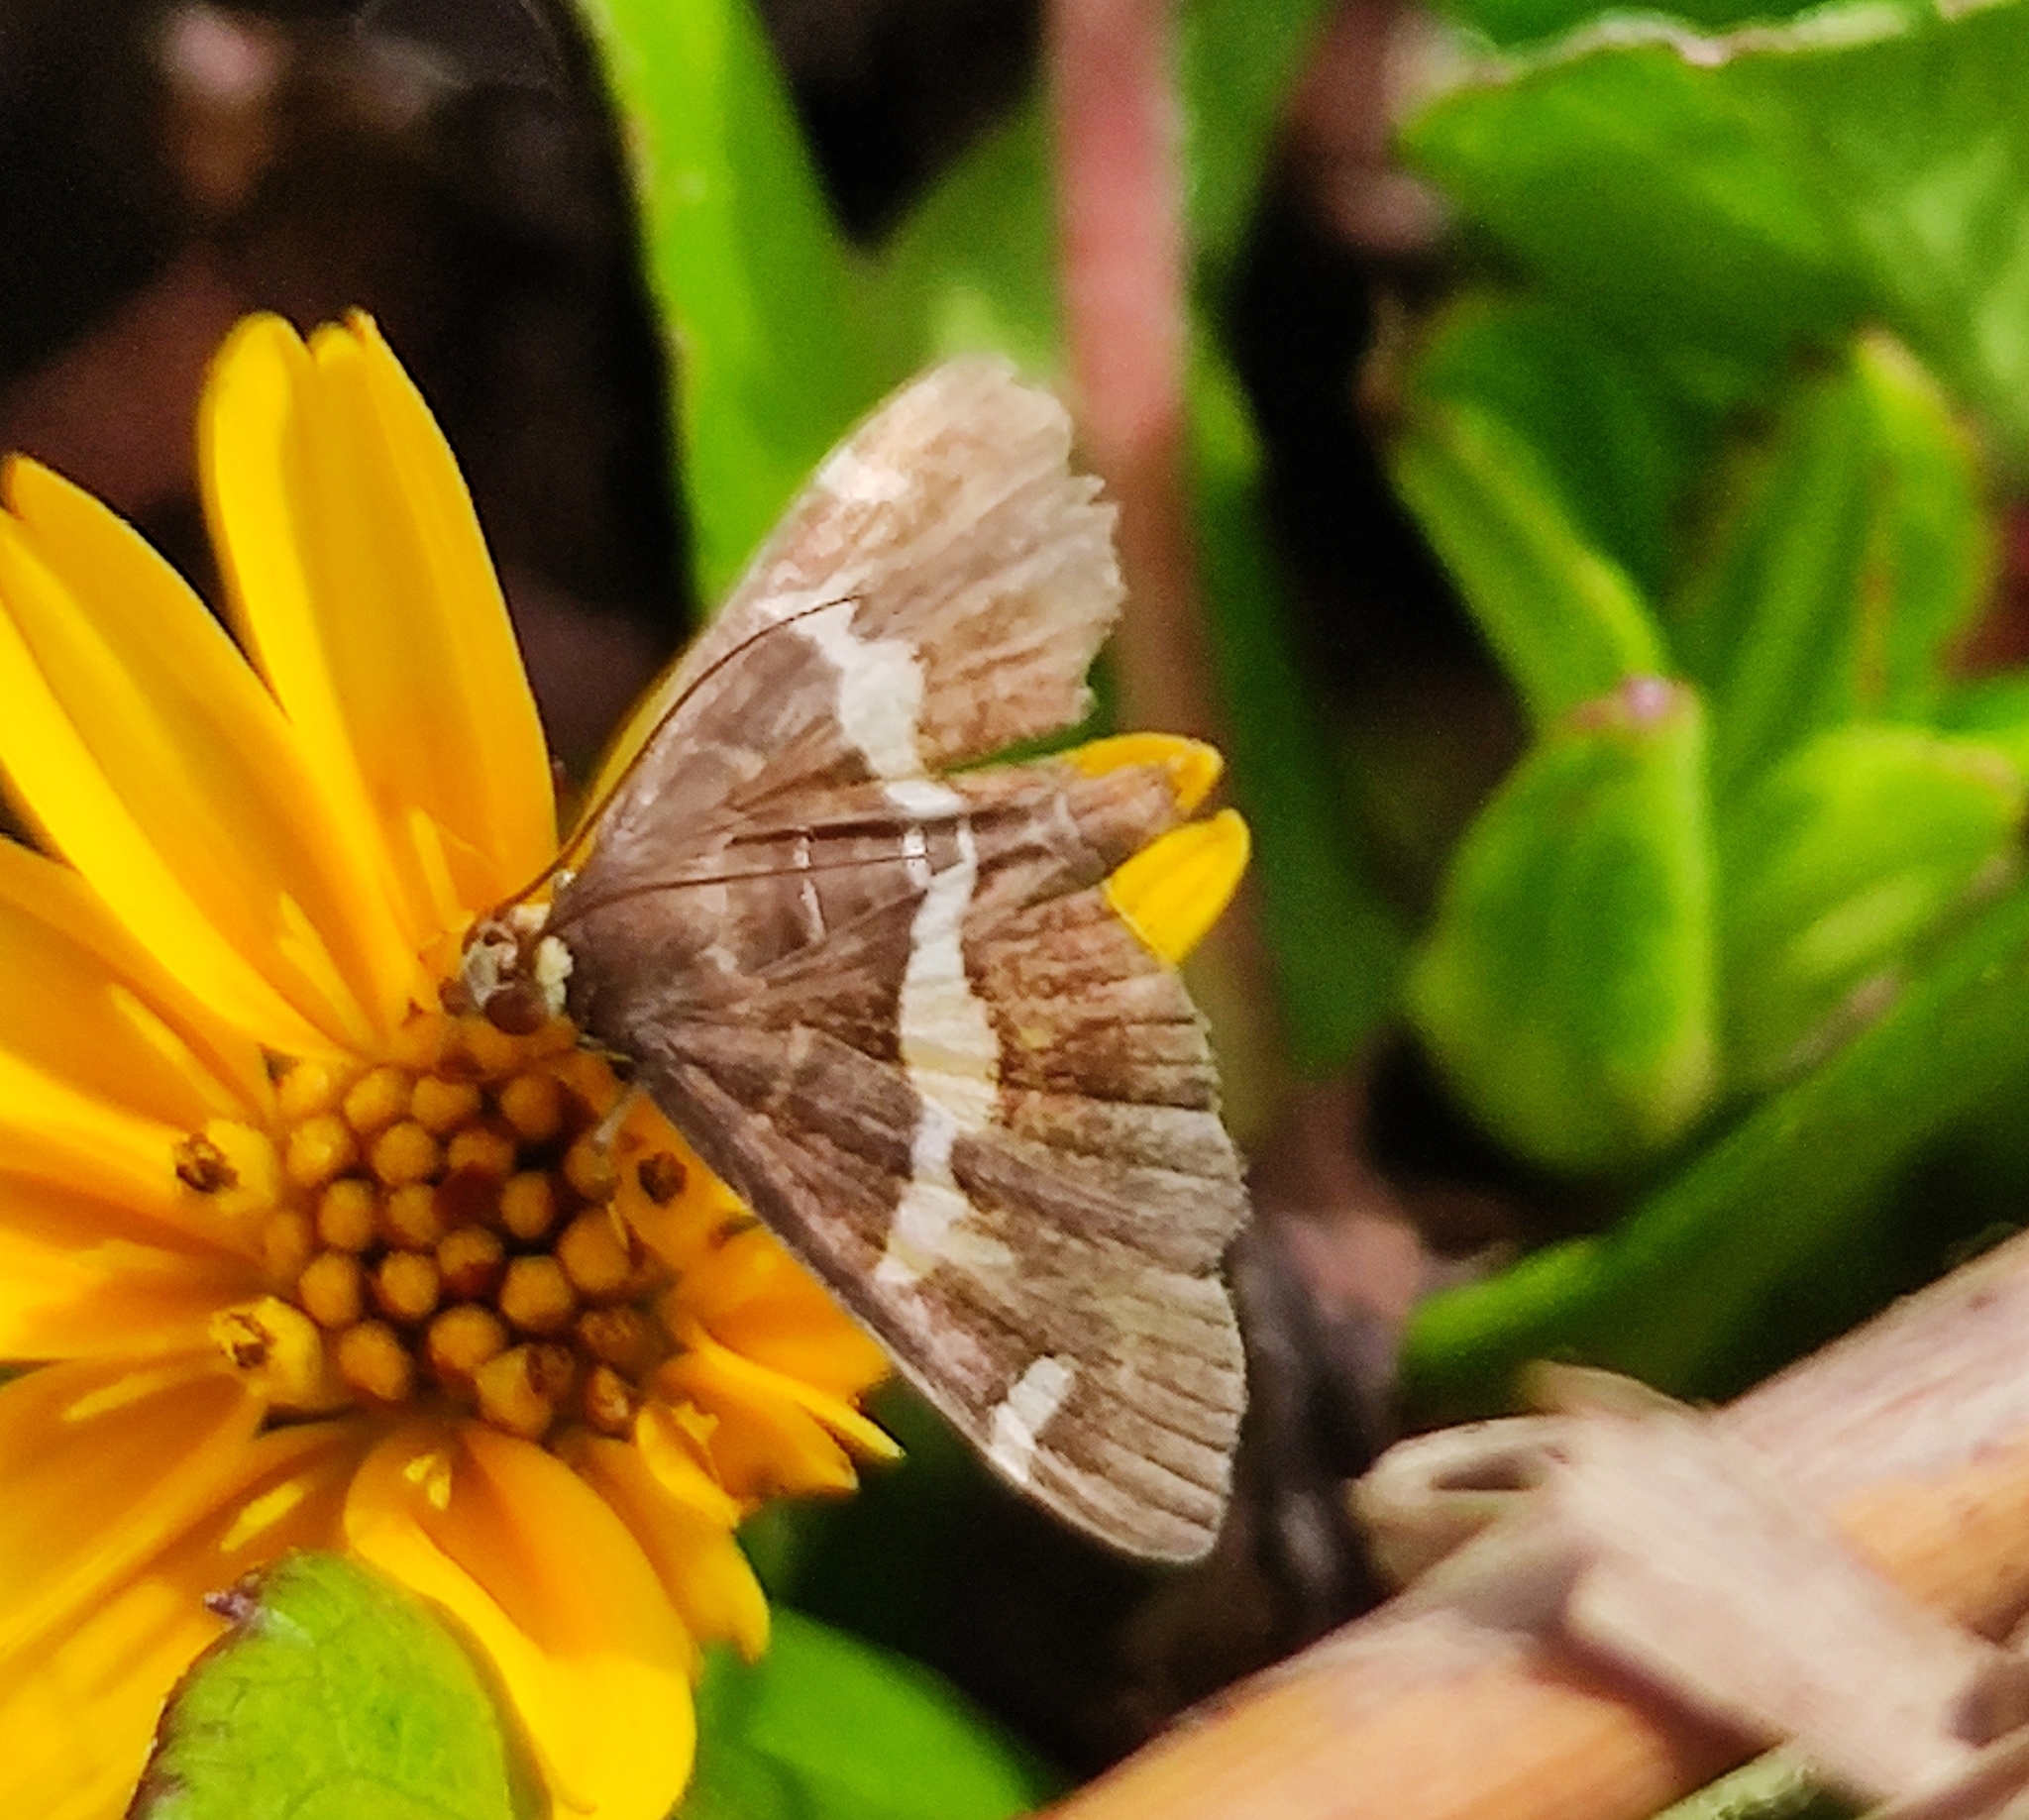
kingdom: Animalia
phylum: Arthropoda
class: Insecta
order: Lepidoptera
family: Crambidae
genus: Spoladea
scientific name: Spoladea recurvalis
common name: Beet webworm moth
